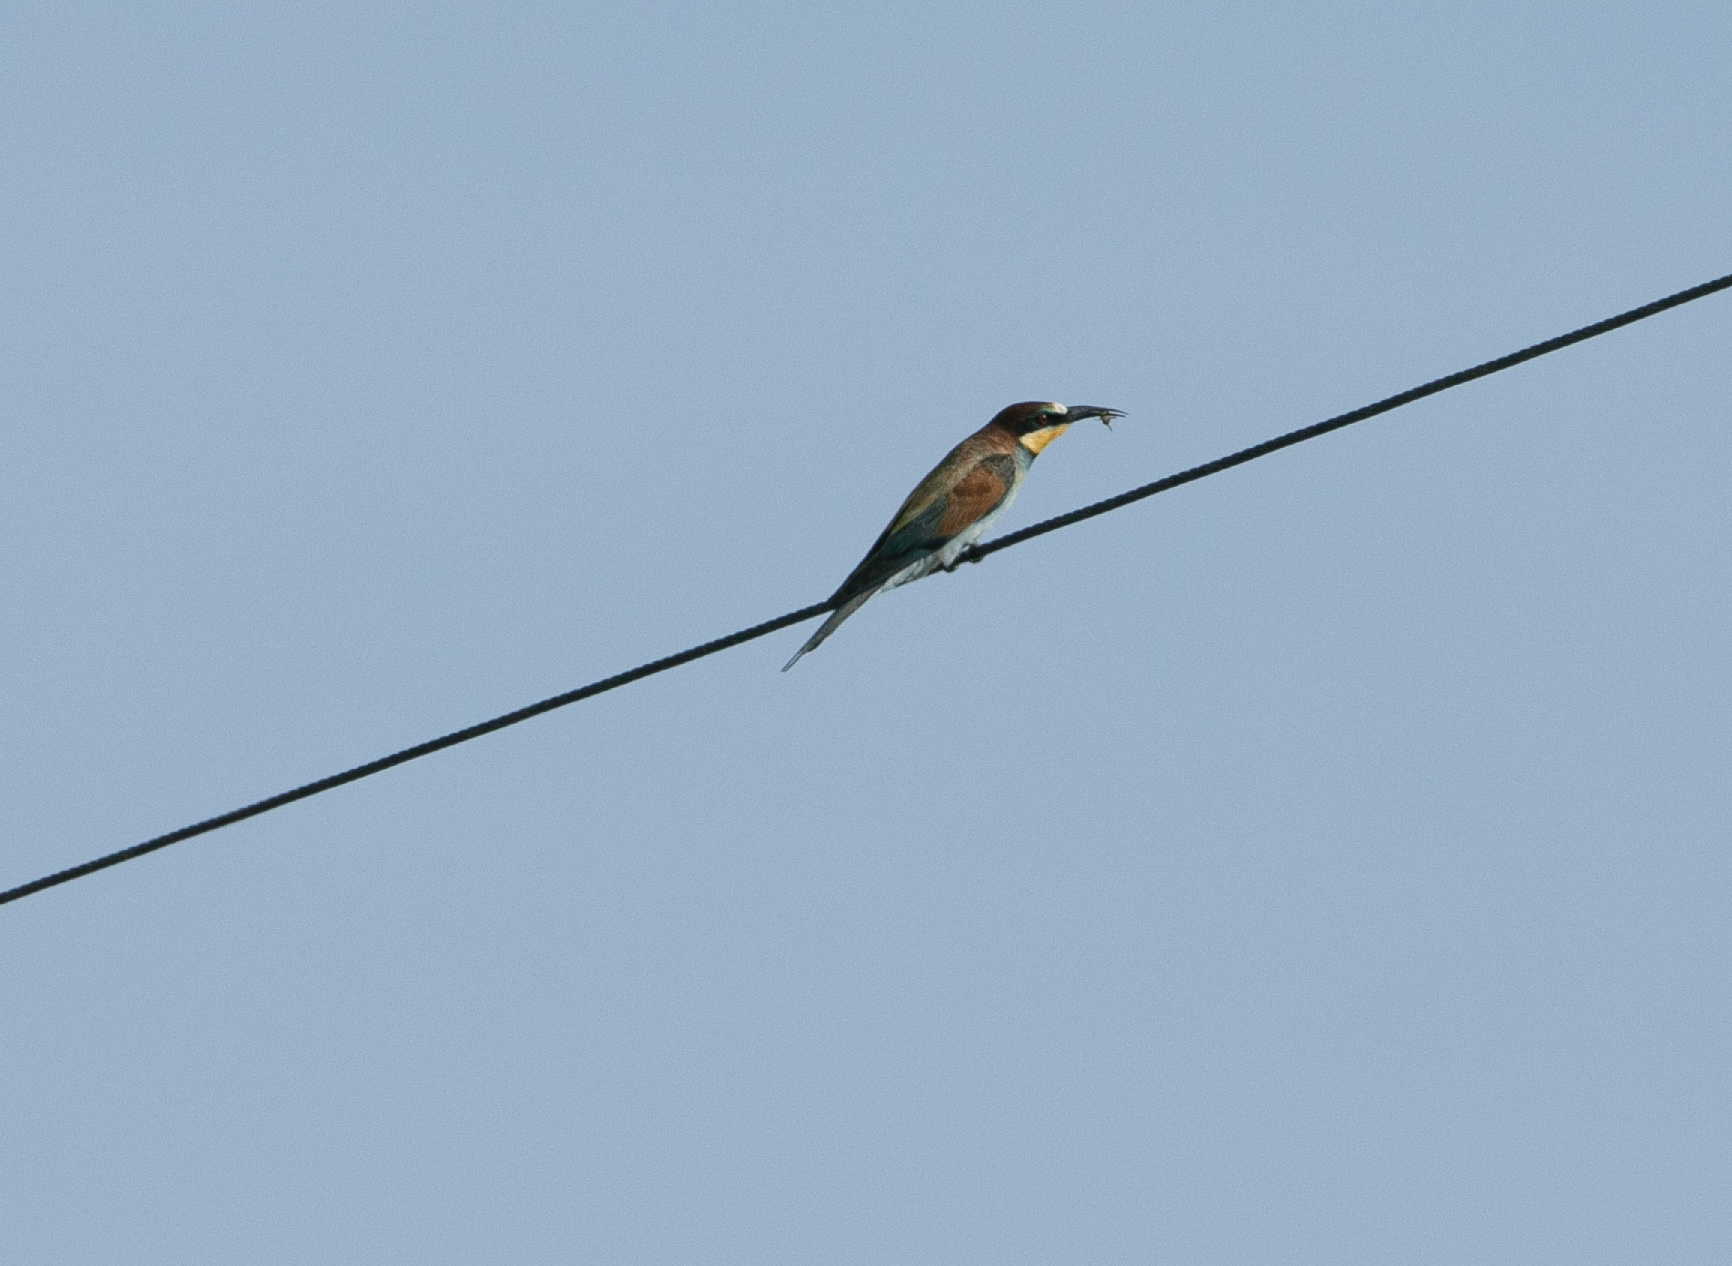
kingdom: Animalia
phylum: Chordata
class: Aves
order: Coraciiformes
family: Meropidae
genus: Merops
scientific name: Merops apiaster
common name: European bee-eater
